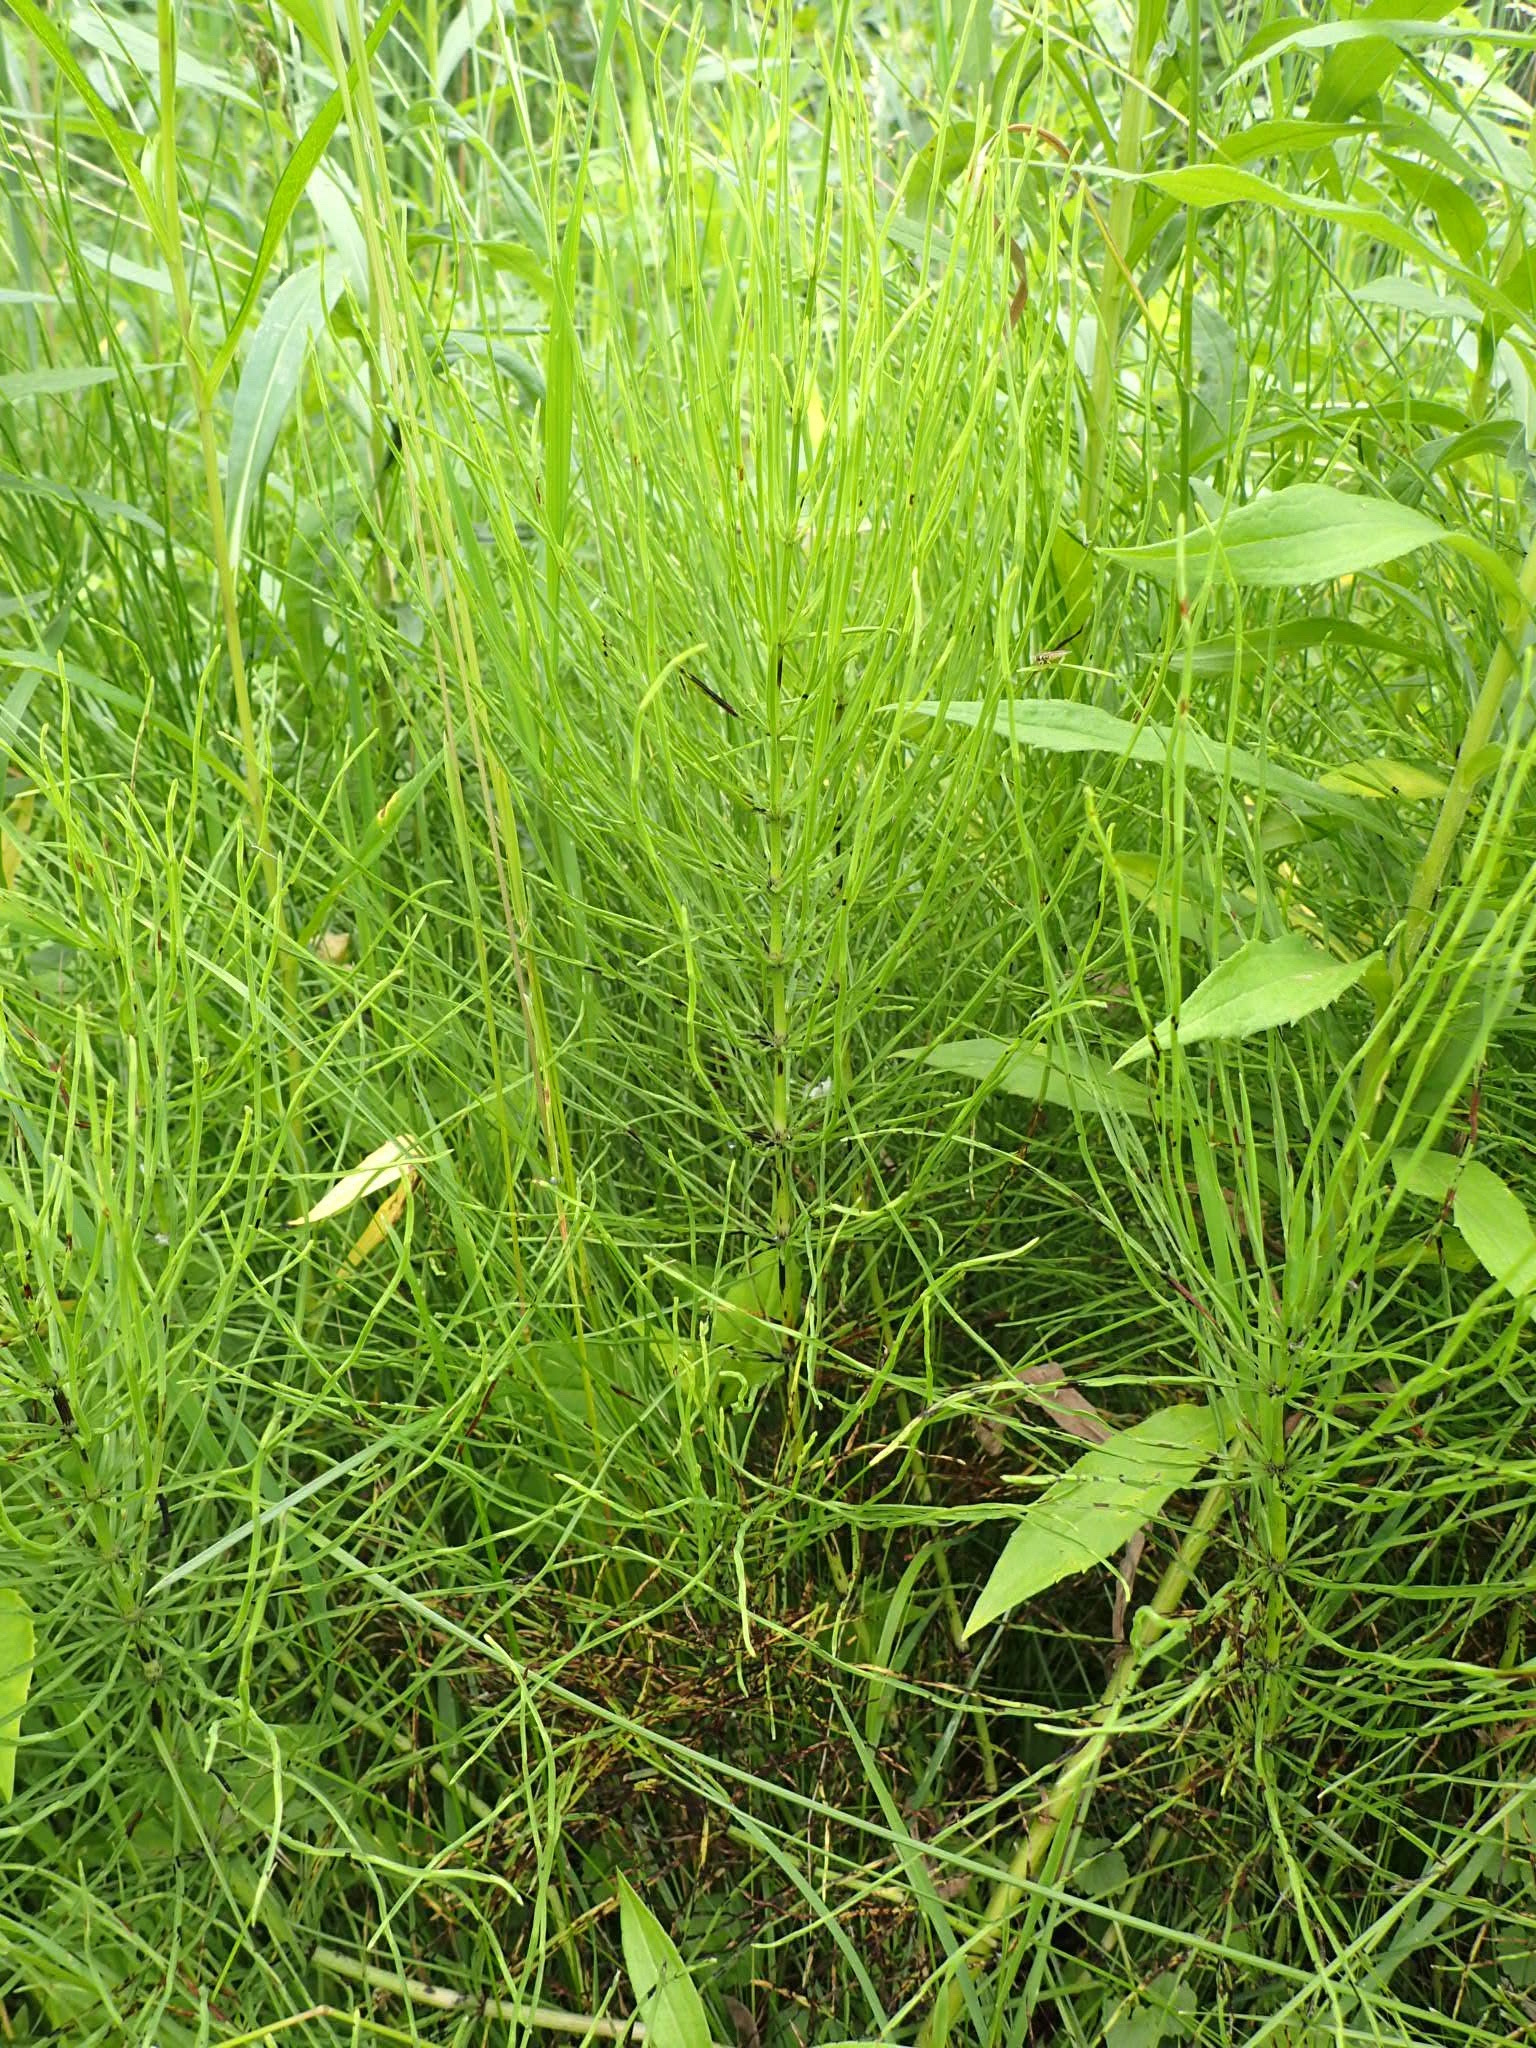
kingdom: Plantae
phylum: Tracheophyta
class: Polypodiopsida
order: Equisetales
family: Equisetaceae
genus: Equisetum
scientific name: Equisetum arvense
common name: Field horsetail
